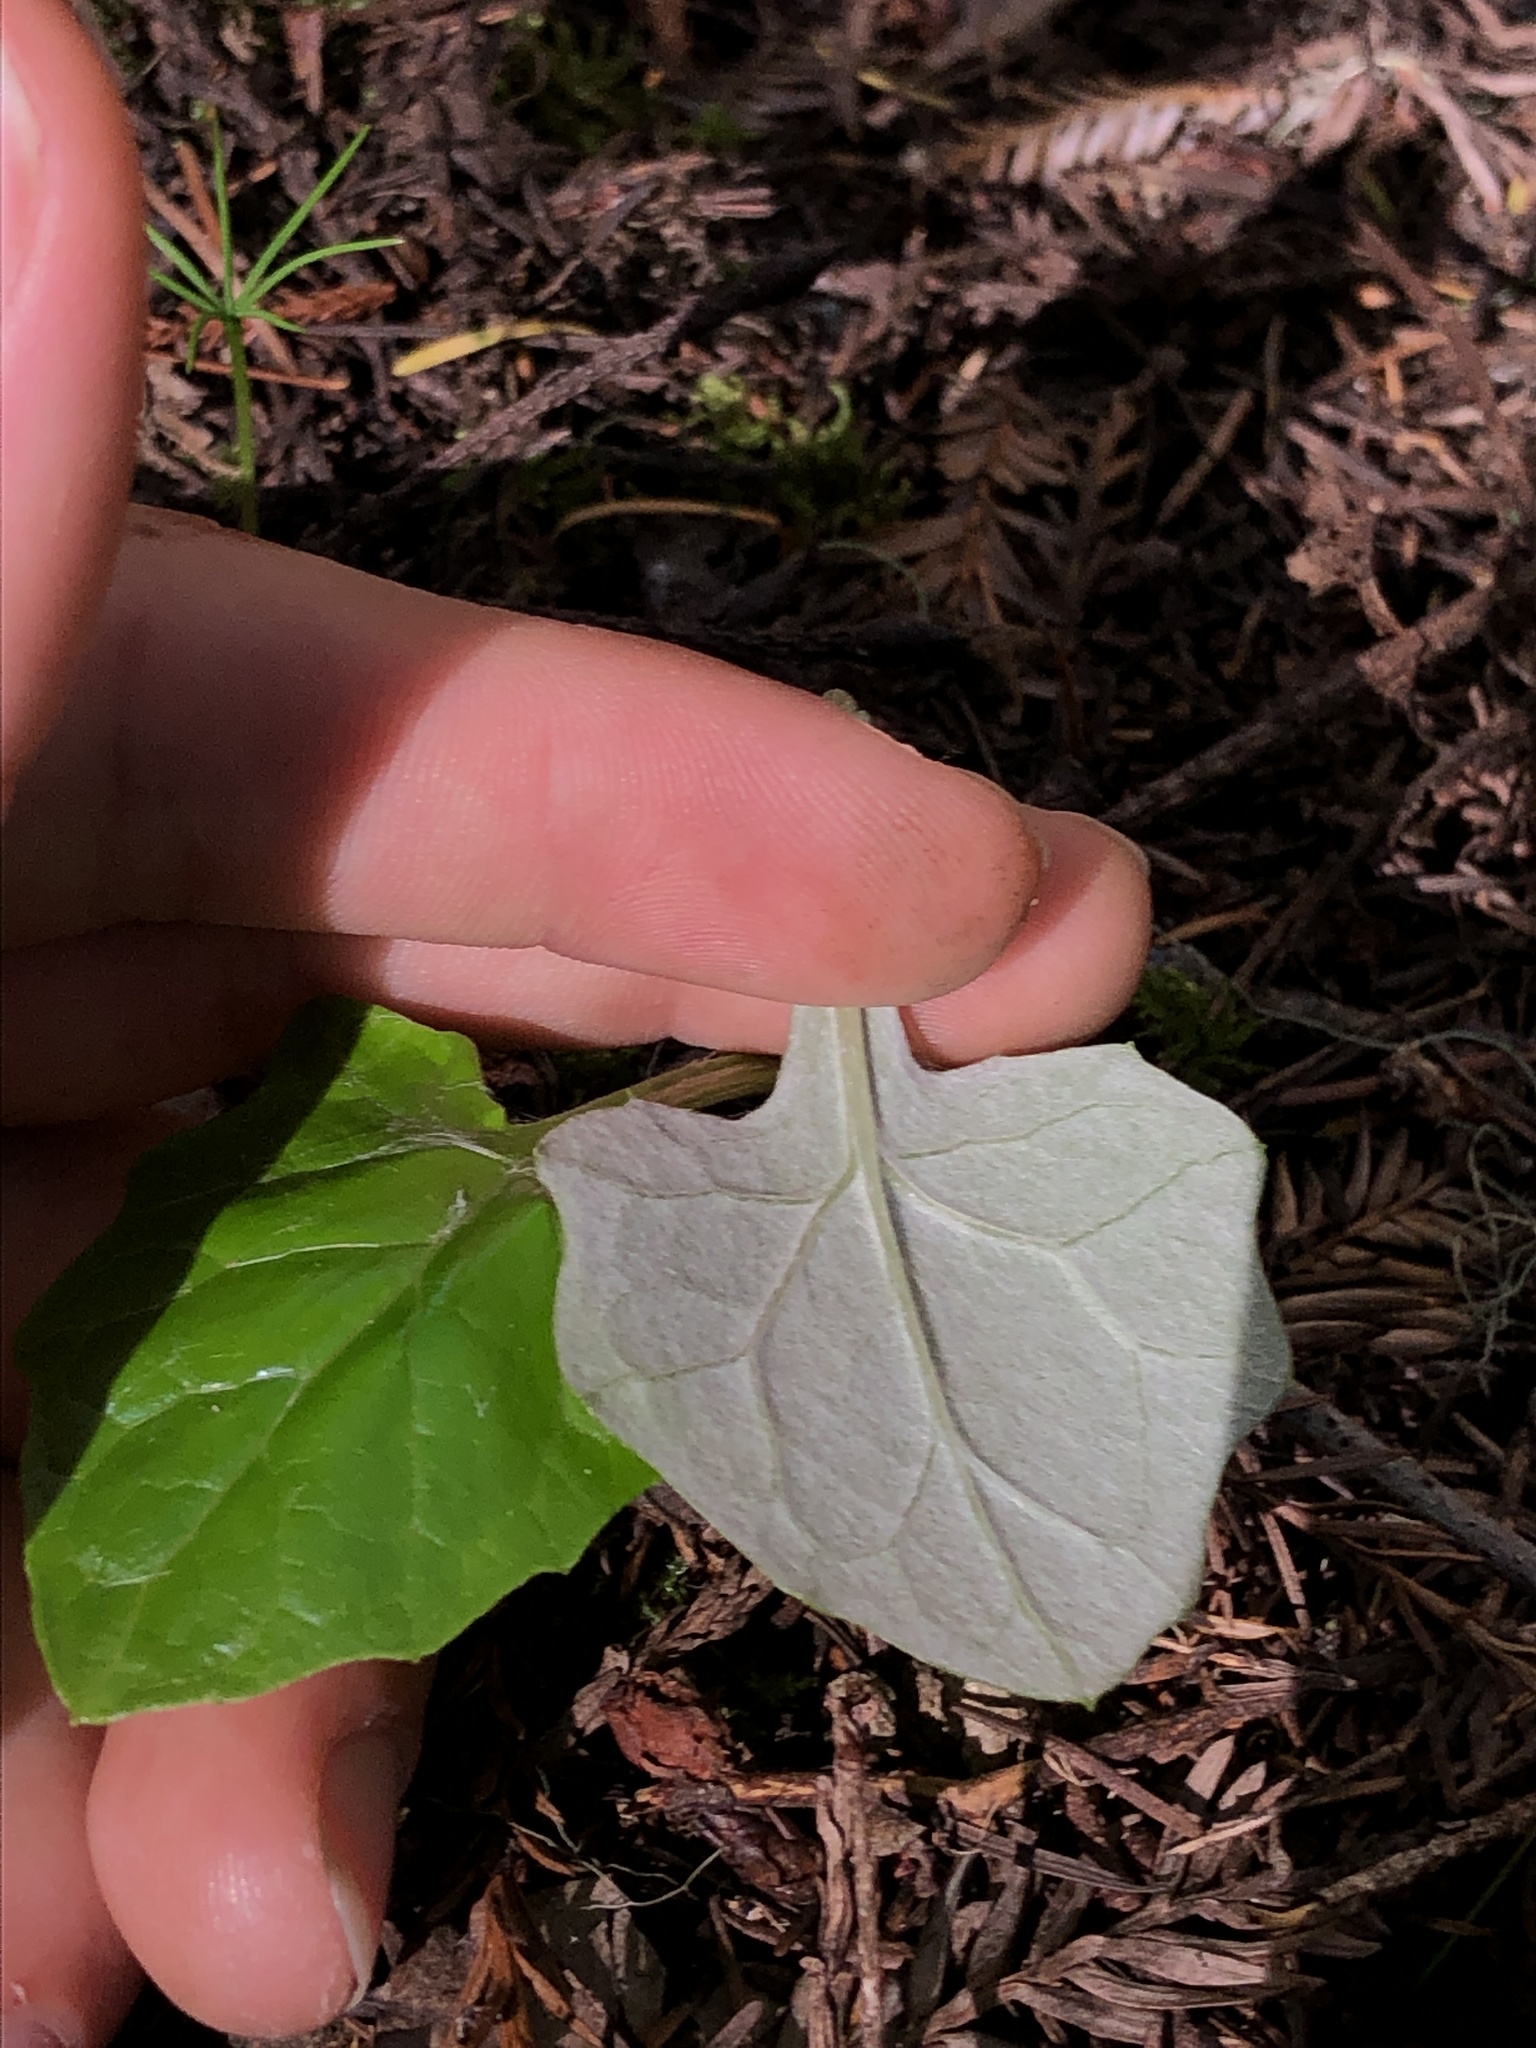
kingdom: Plantae
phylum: Tracheophyta
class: Magnoliopsida
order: Asterales
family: Asteraceae
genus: Adenocaulon
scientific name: Adenocaulon bicolor
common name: Trailplant
